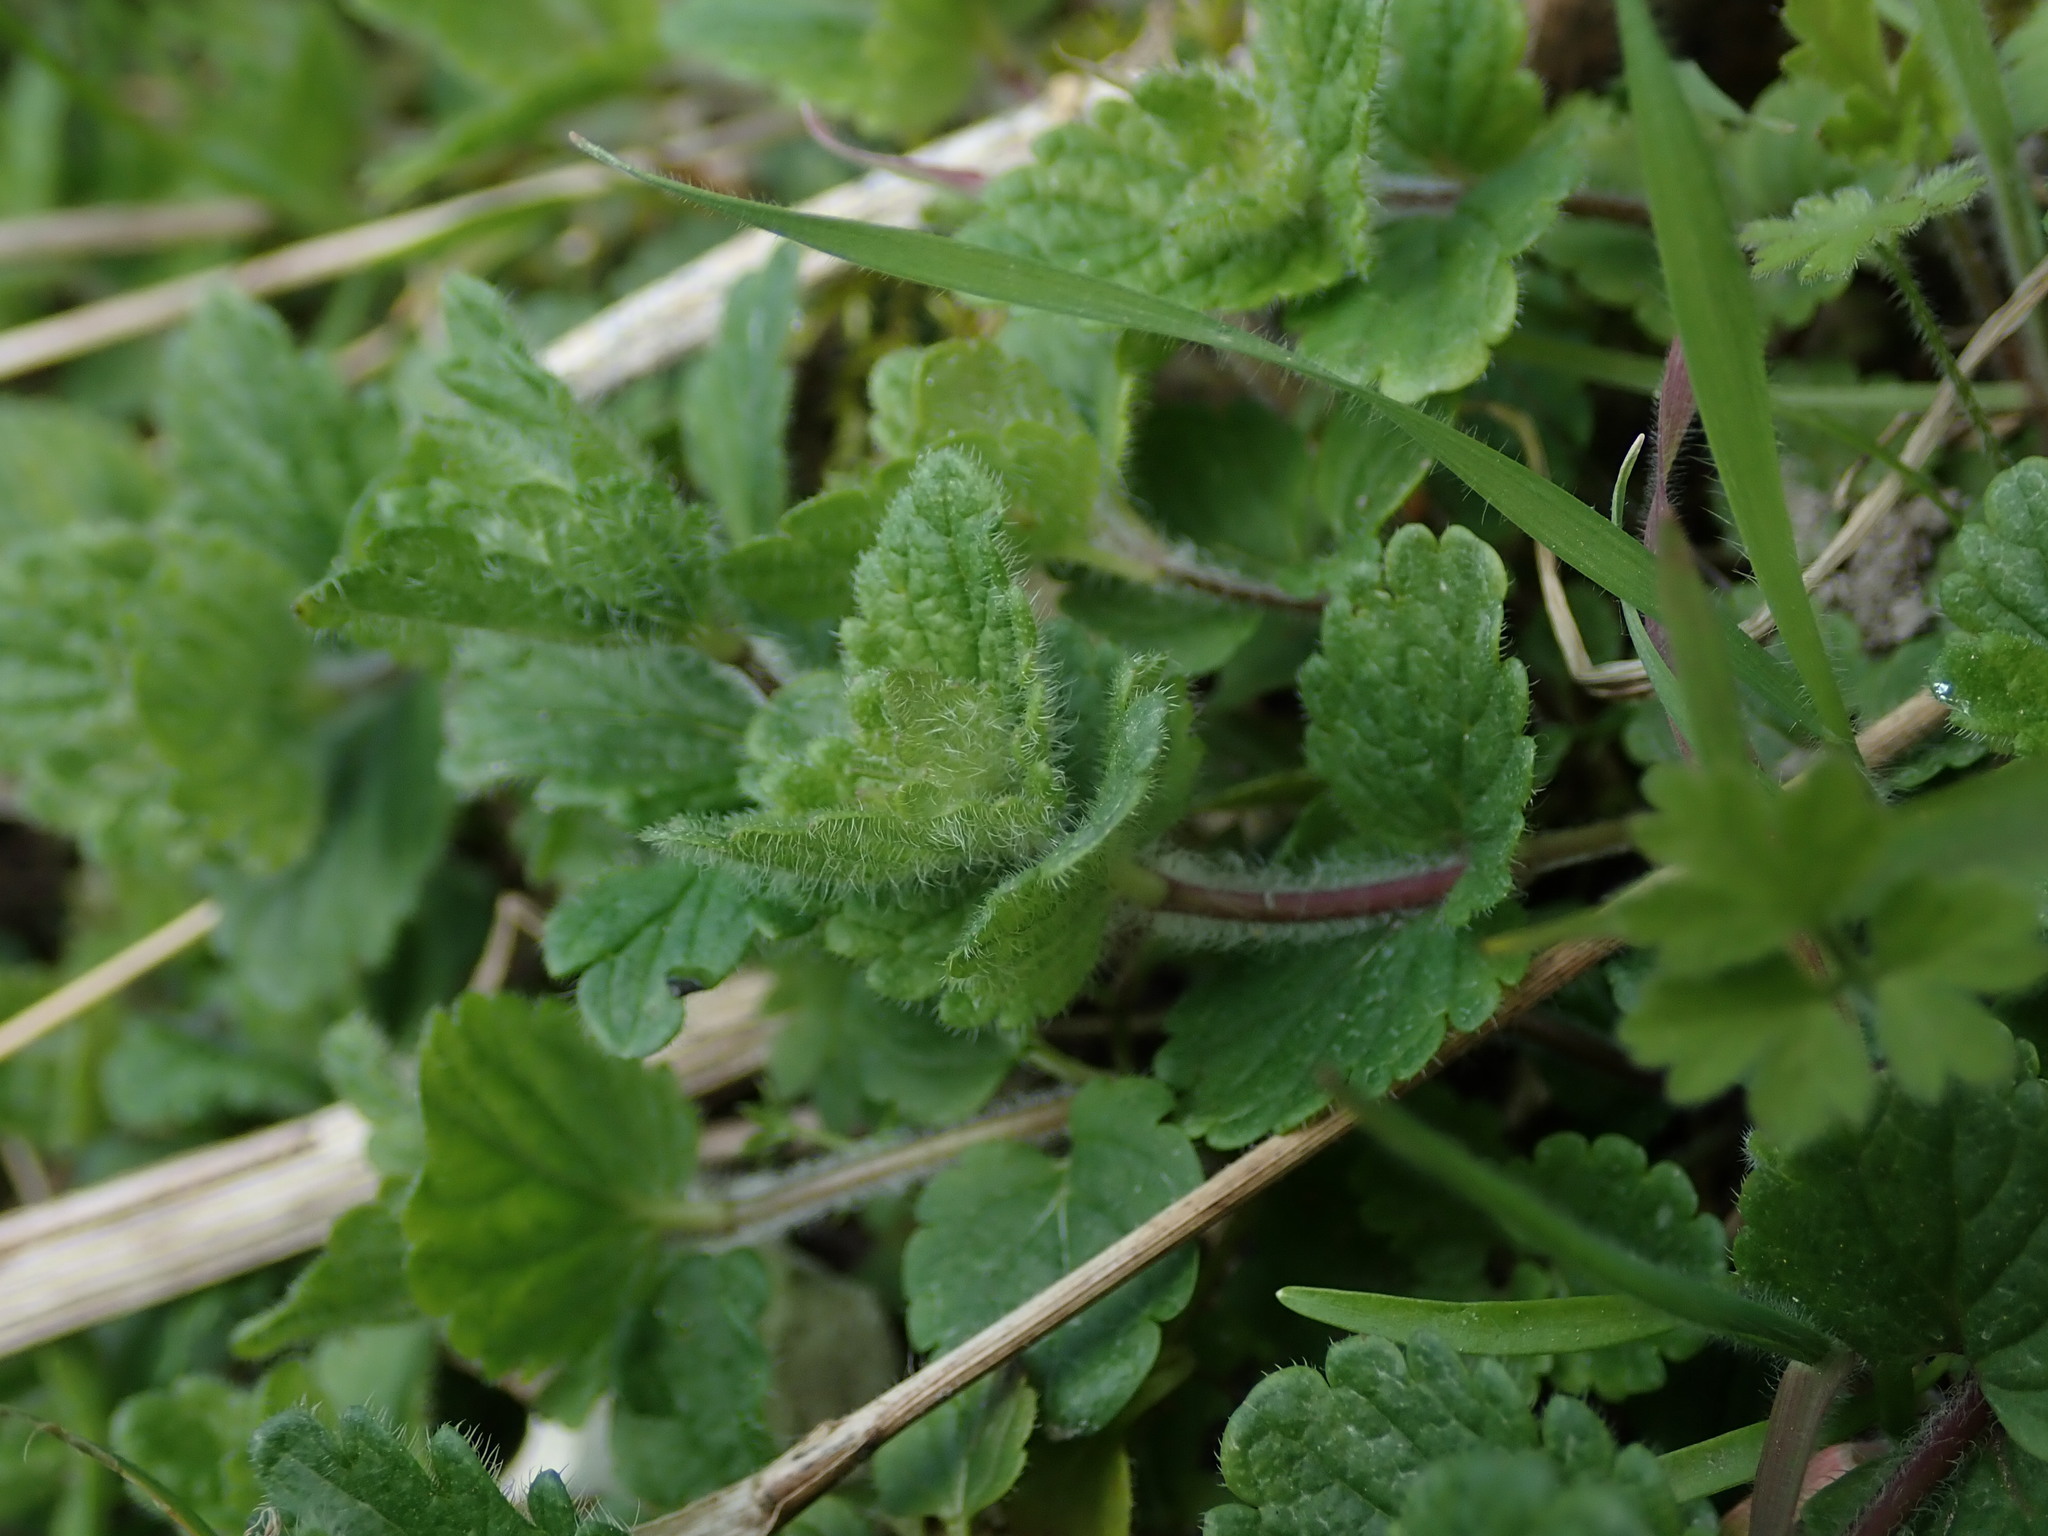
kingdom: Plantae
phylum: Tracheophyta
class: Magnoliopsida
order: Lamiales
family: Plantaginaceae
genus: Veronica
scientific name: Veronica chamaedrys
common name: Germander speedwell
